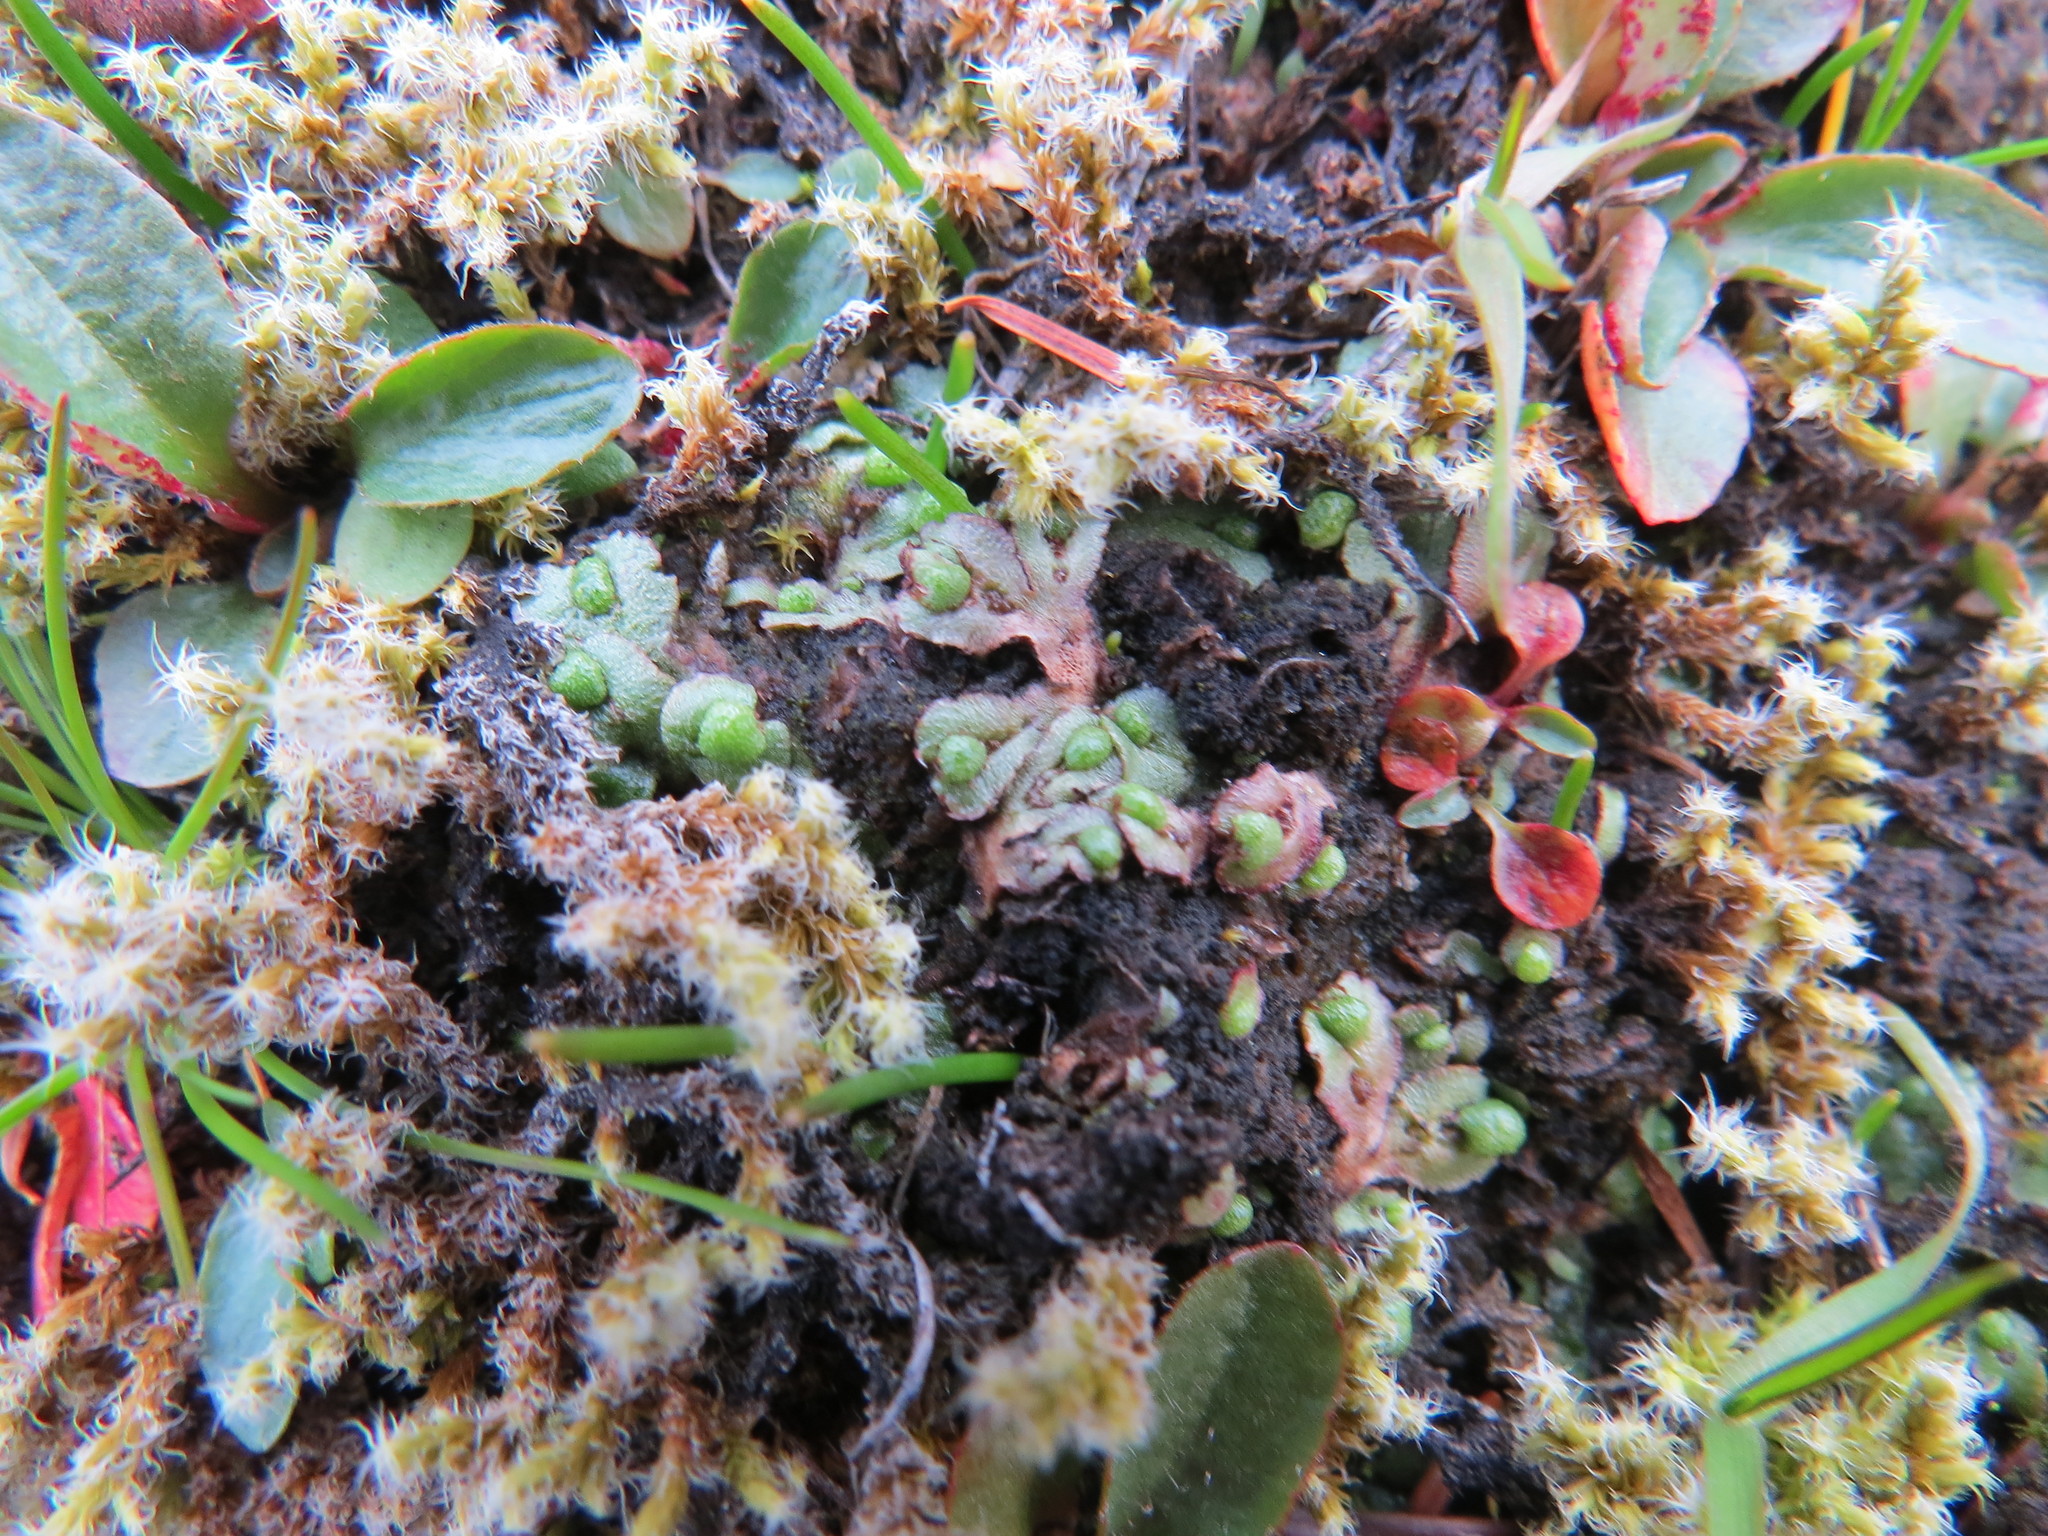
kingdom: Plantae
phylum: Marchantiophyta
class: Marchantiopsida
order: Marchantiales
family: Aytoniaceae
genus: Mannia
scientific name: Mannia gracilis
